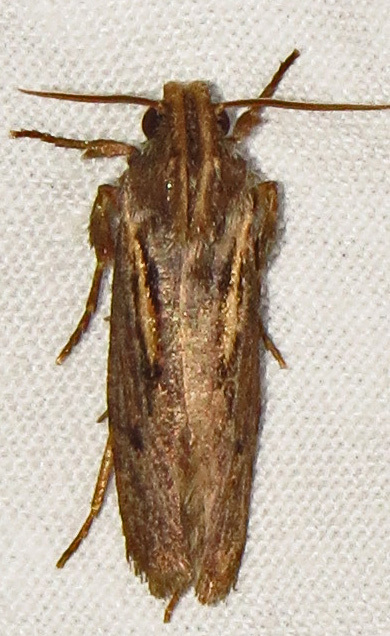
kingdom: Animalia
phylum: Arthropoda
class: Insecta
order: Lepidoptera
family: Tineidae
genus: Acrolophus
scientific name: Acrolophus popeanella
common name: Clemens' grass tubeworm moth
